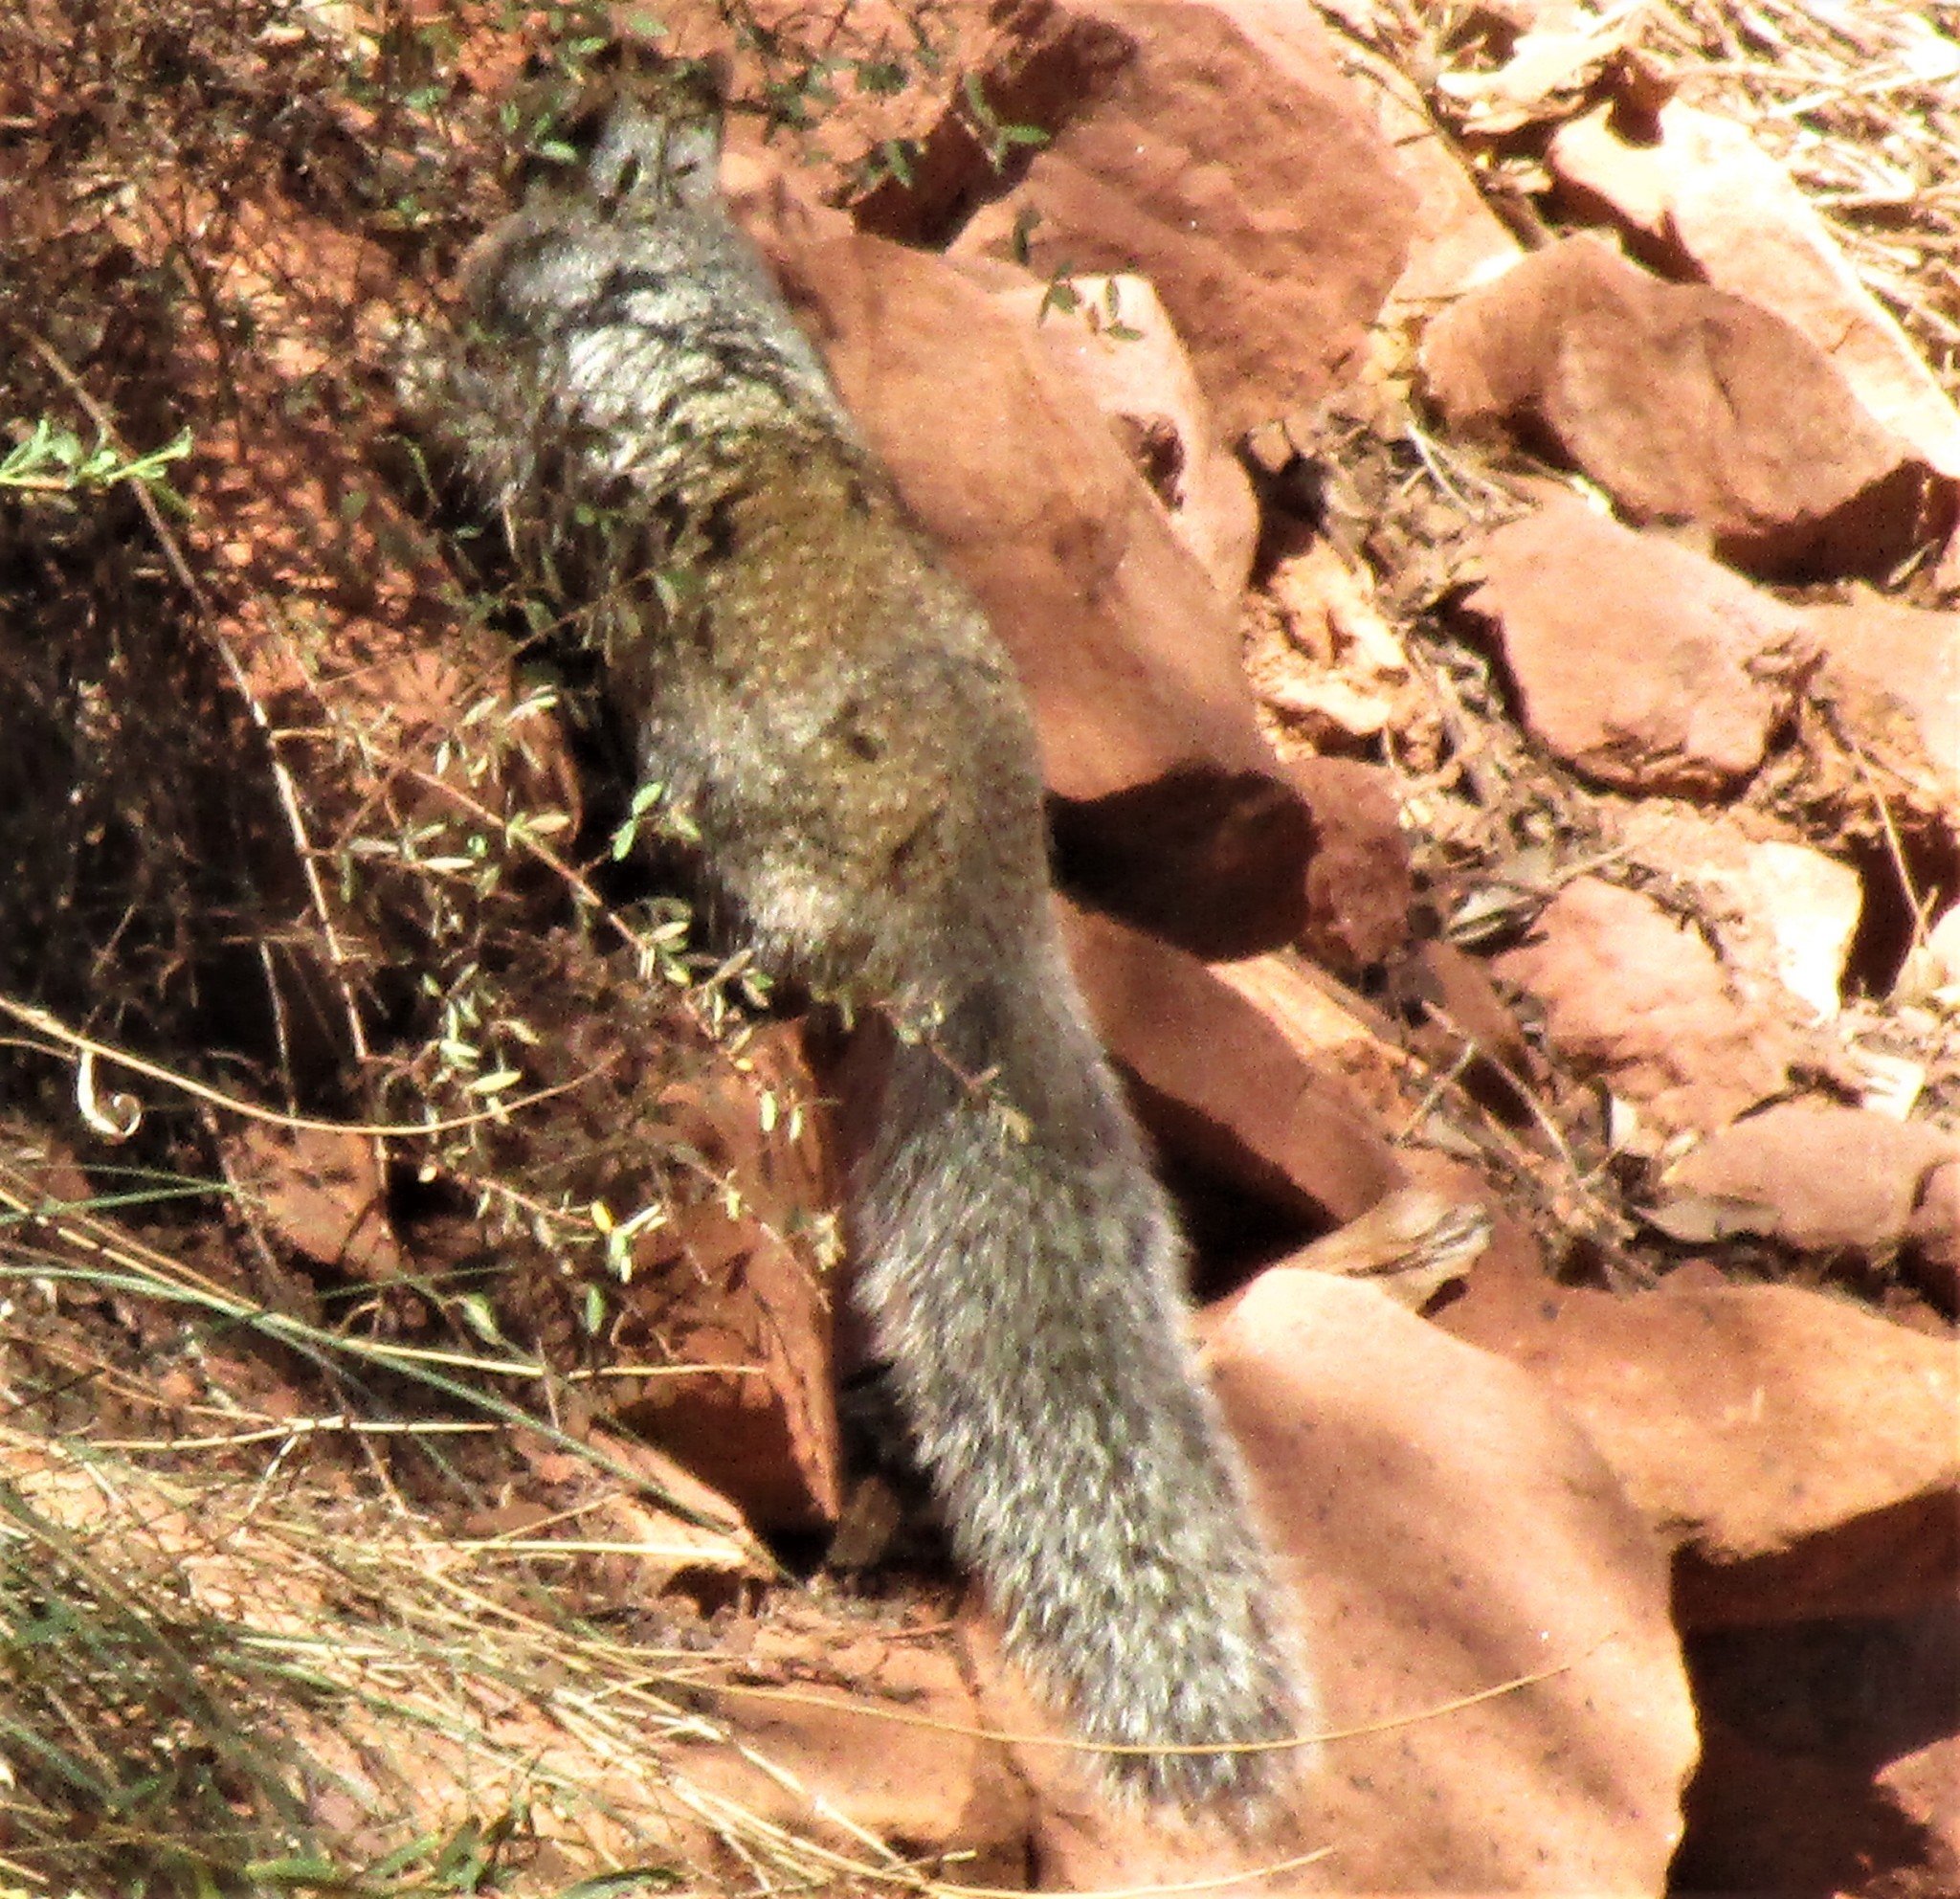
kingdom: Animalia
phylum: Chordata
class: Mammalia
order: Rodentia
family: Sciuridae
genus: Otospermophilus
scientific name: Otospermophilus variegatus
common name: Rock squirrel
